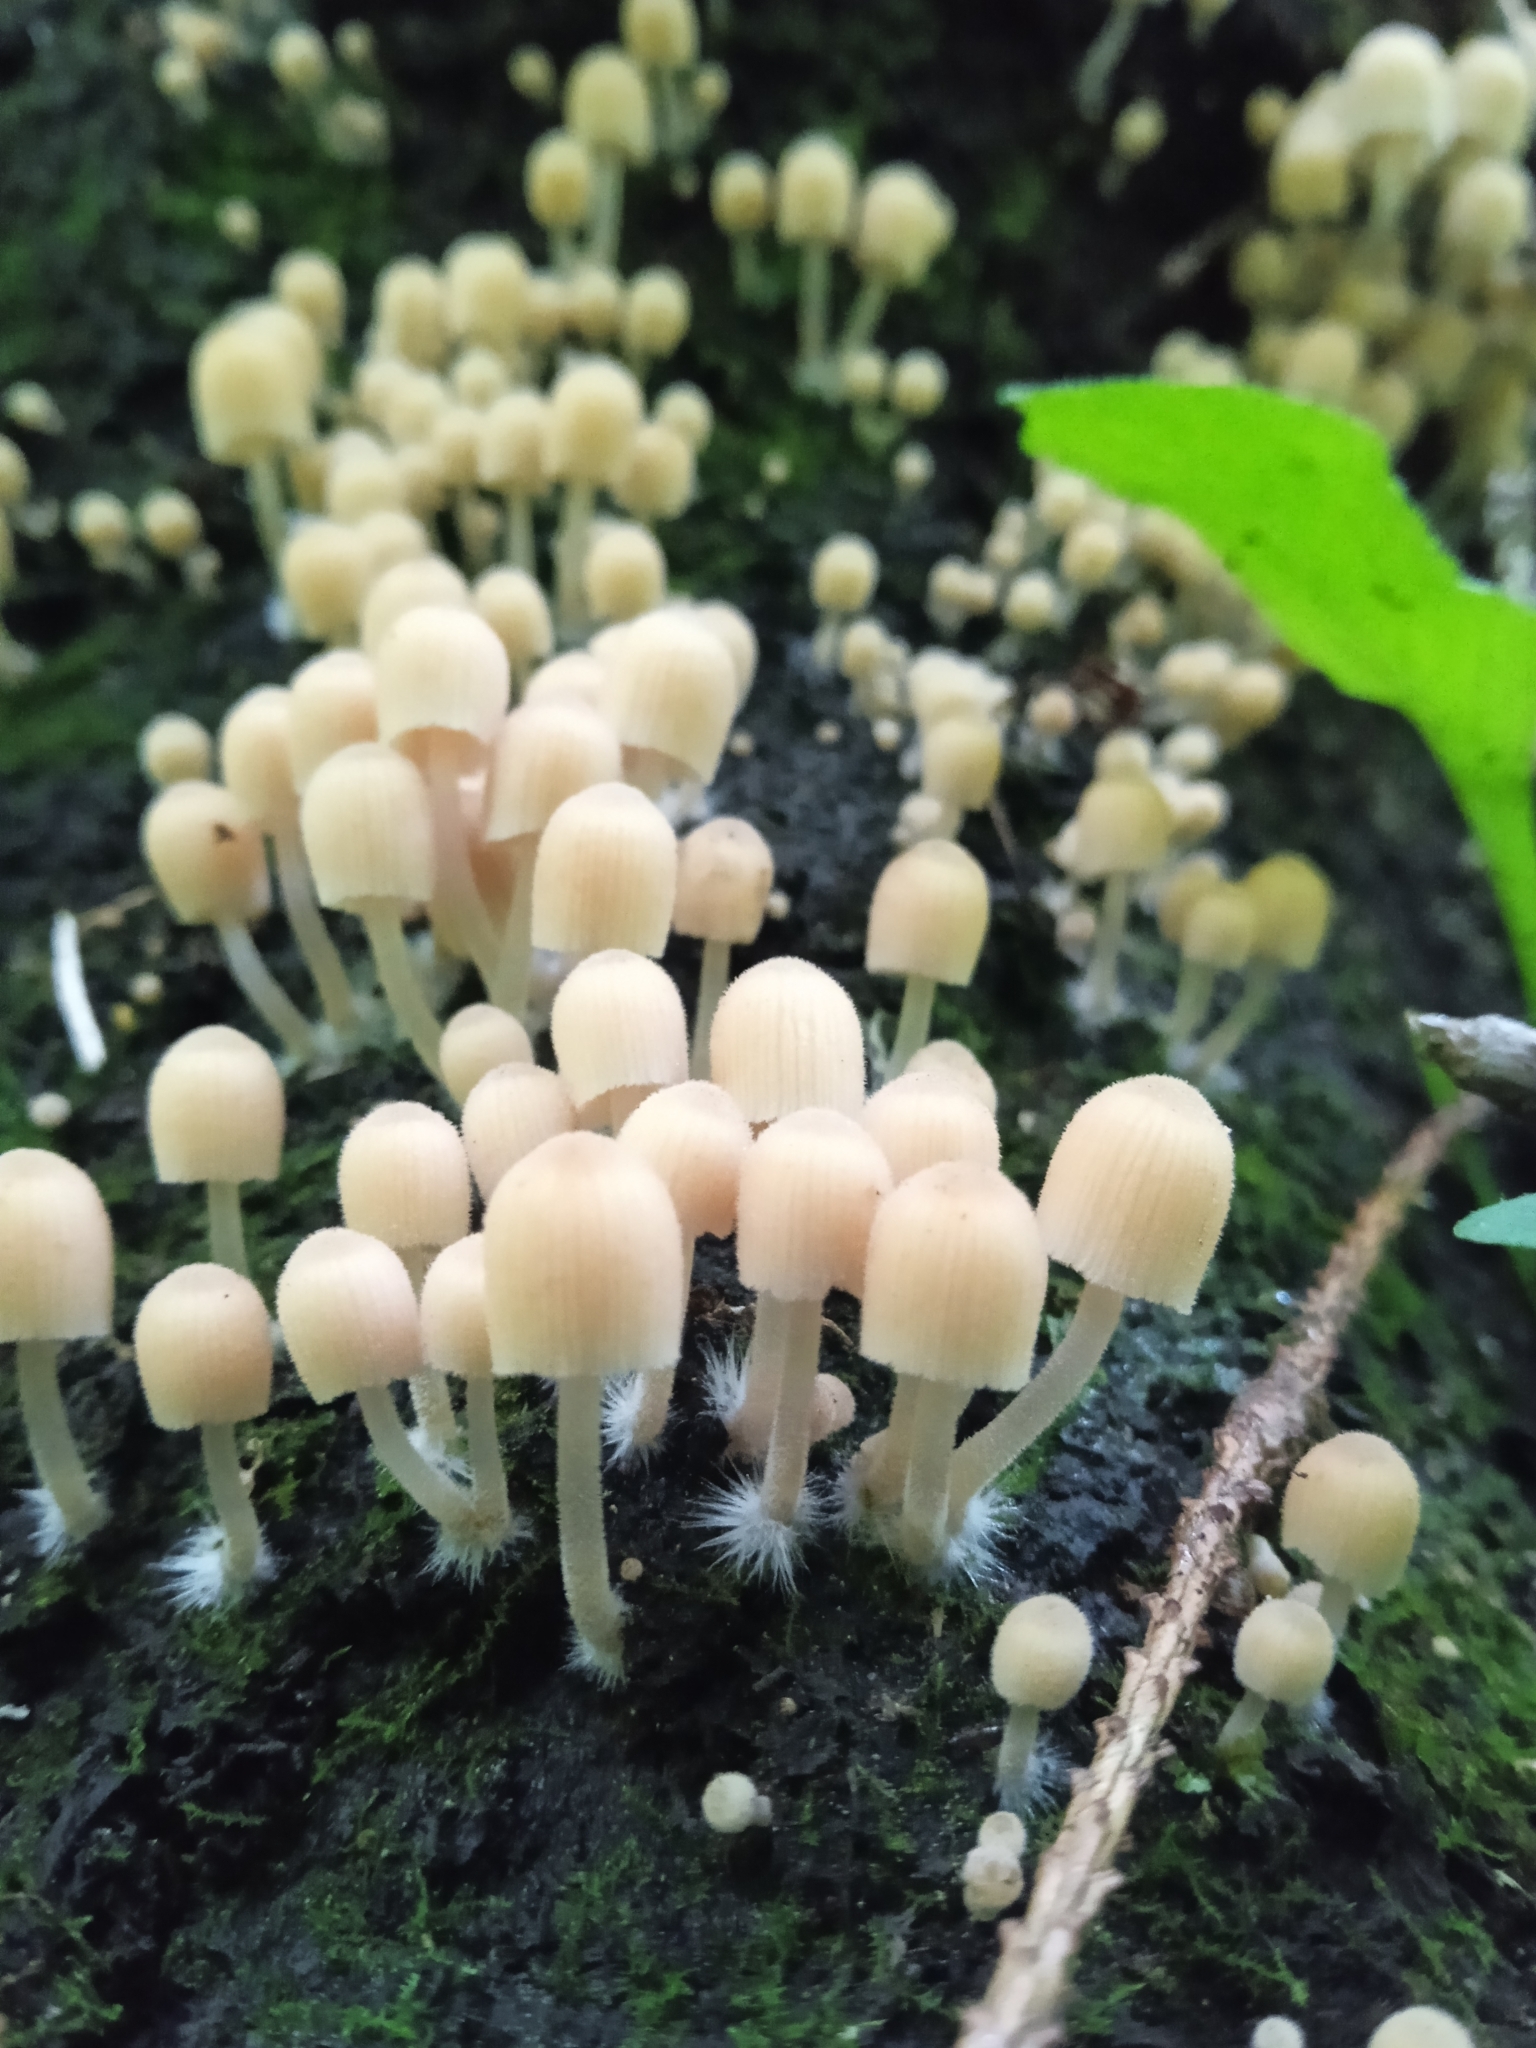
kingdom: Fungi
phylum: Basidiomycota
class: Agaricomycetes
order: Agaricales
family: Psathyrellaceae
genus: Coprinellus
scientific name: Coprinellus disseminatus
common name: Fairies' bonnets
